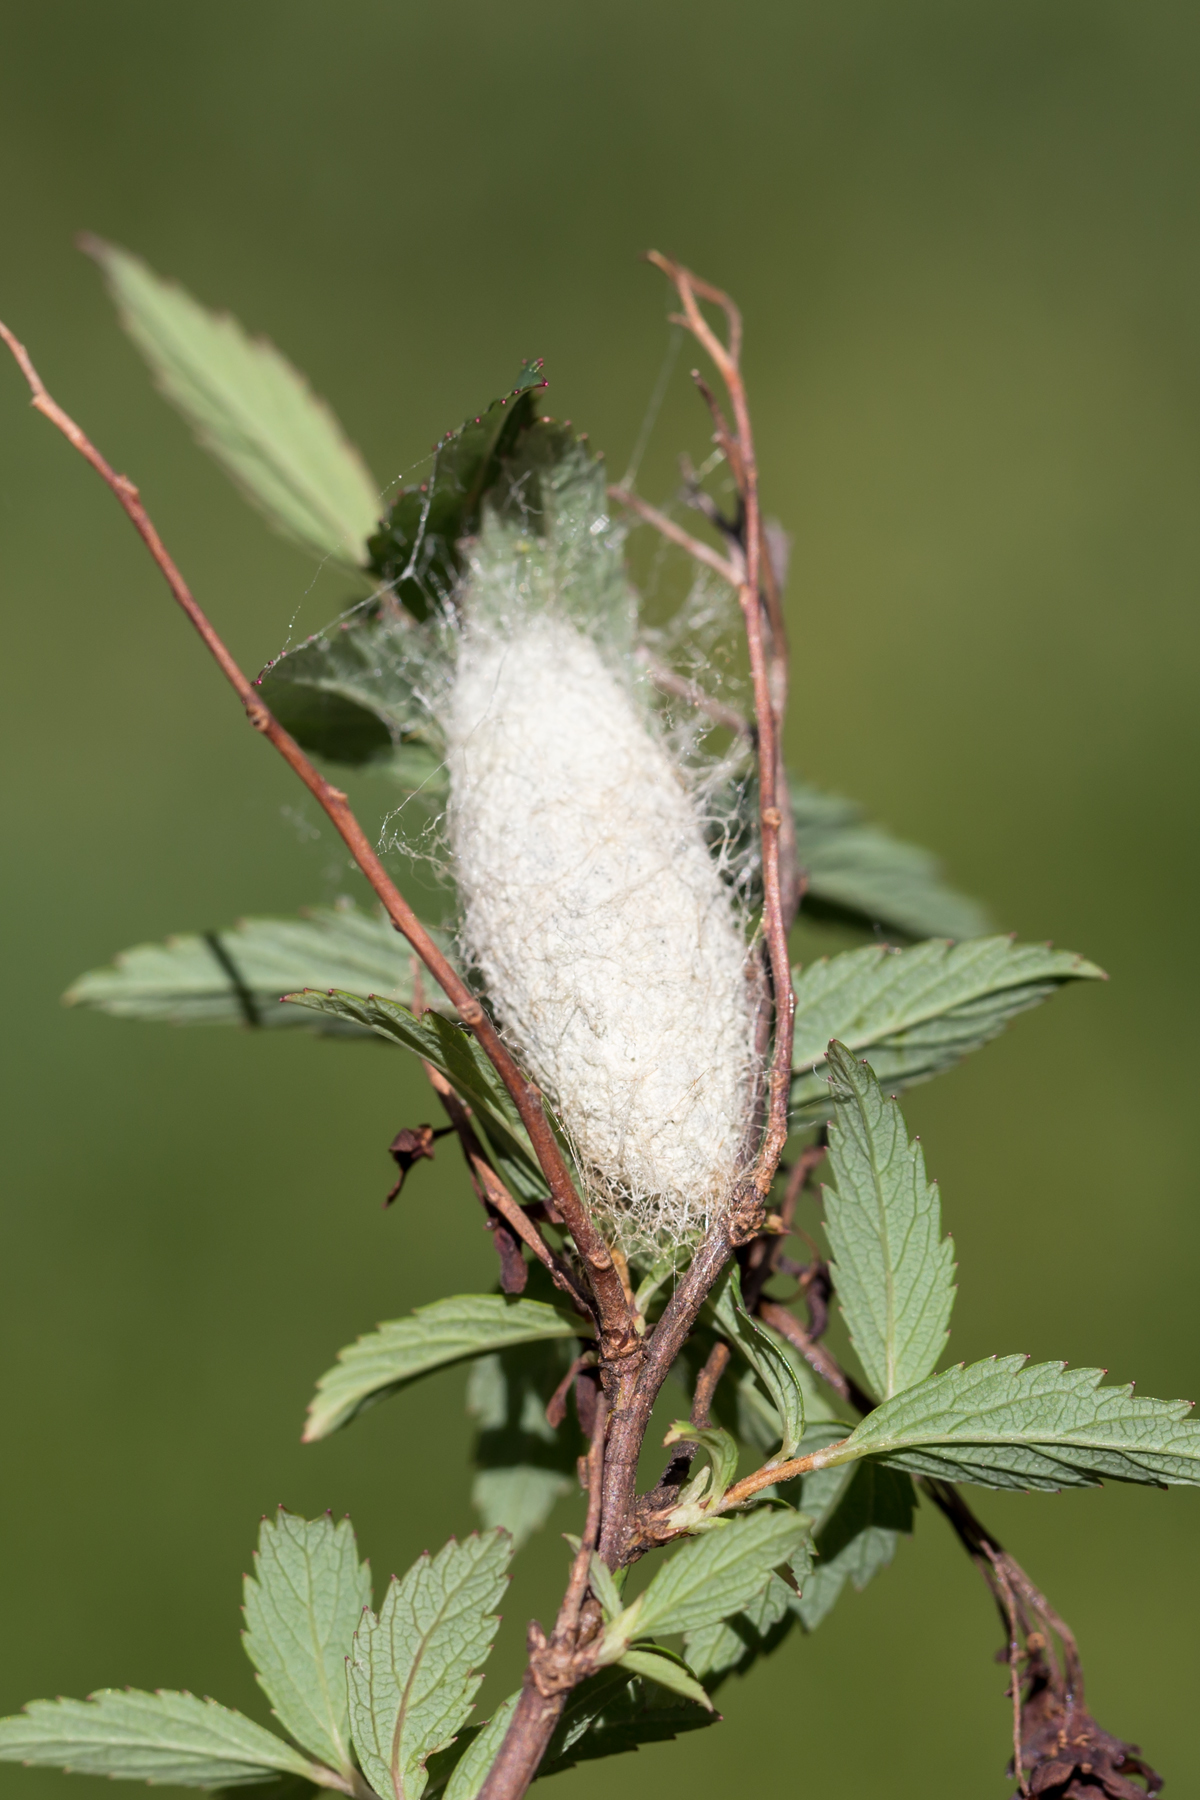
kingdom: Animalia
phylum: Arthropoda
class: Insecta
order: Lepidoptera
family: Lasiocampidae
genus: Malacosoma
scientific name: Malacosoma americana
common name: Eastern tent caterpillar moth
